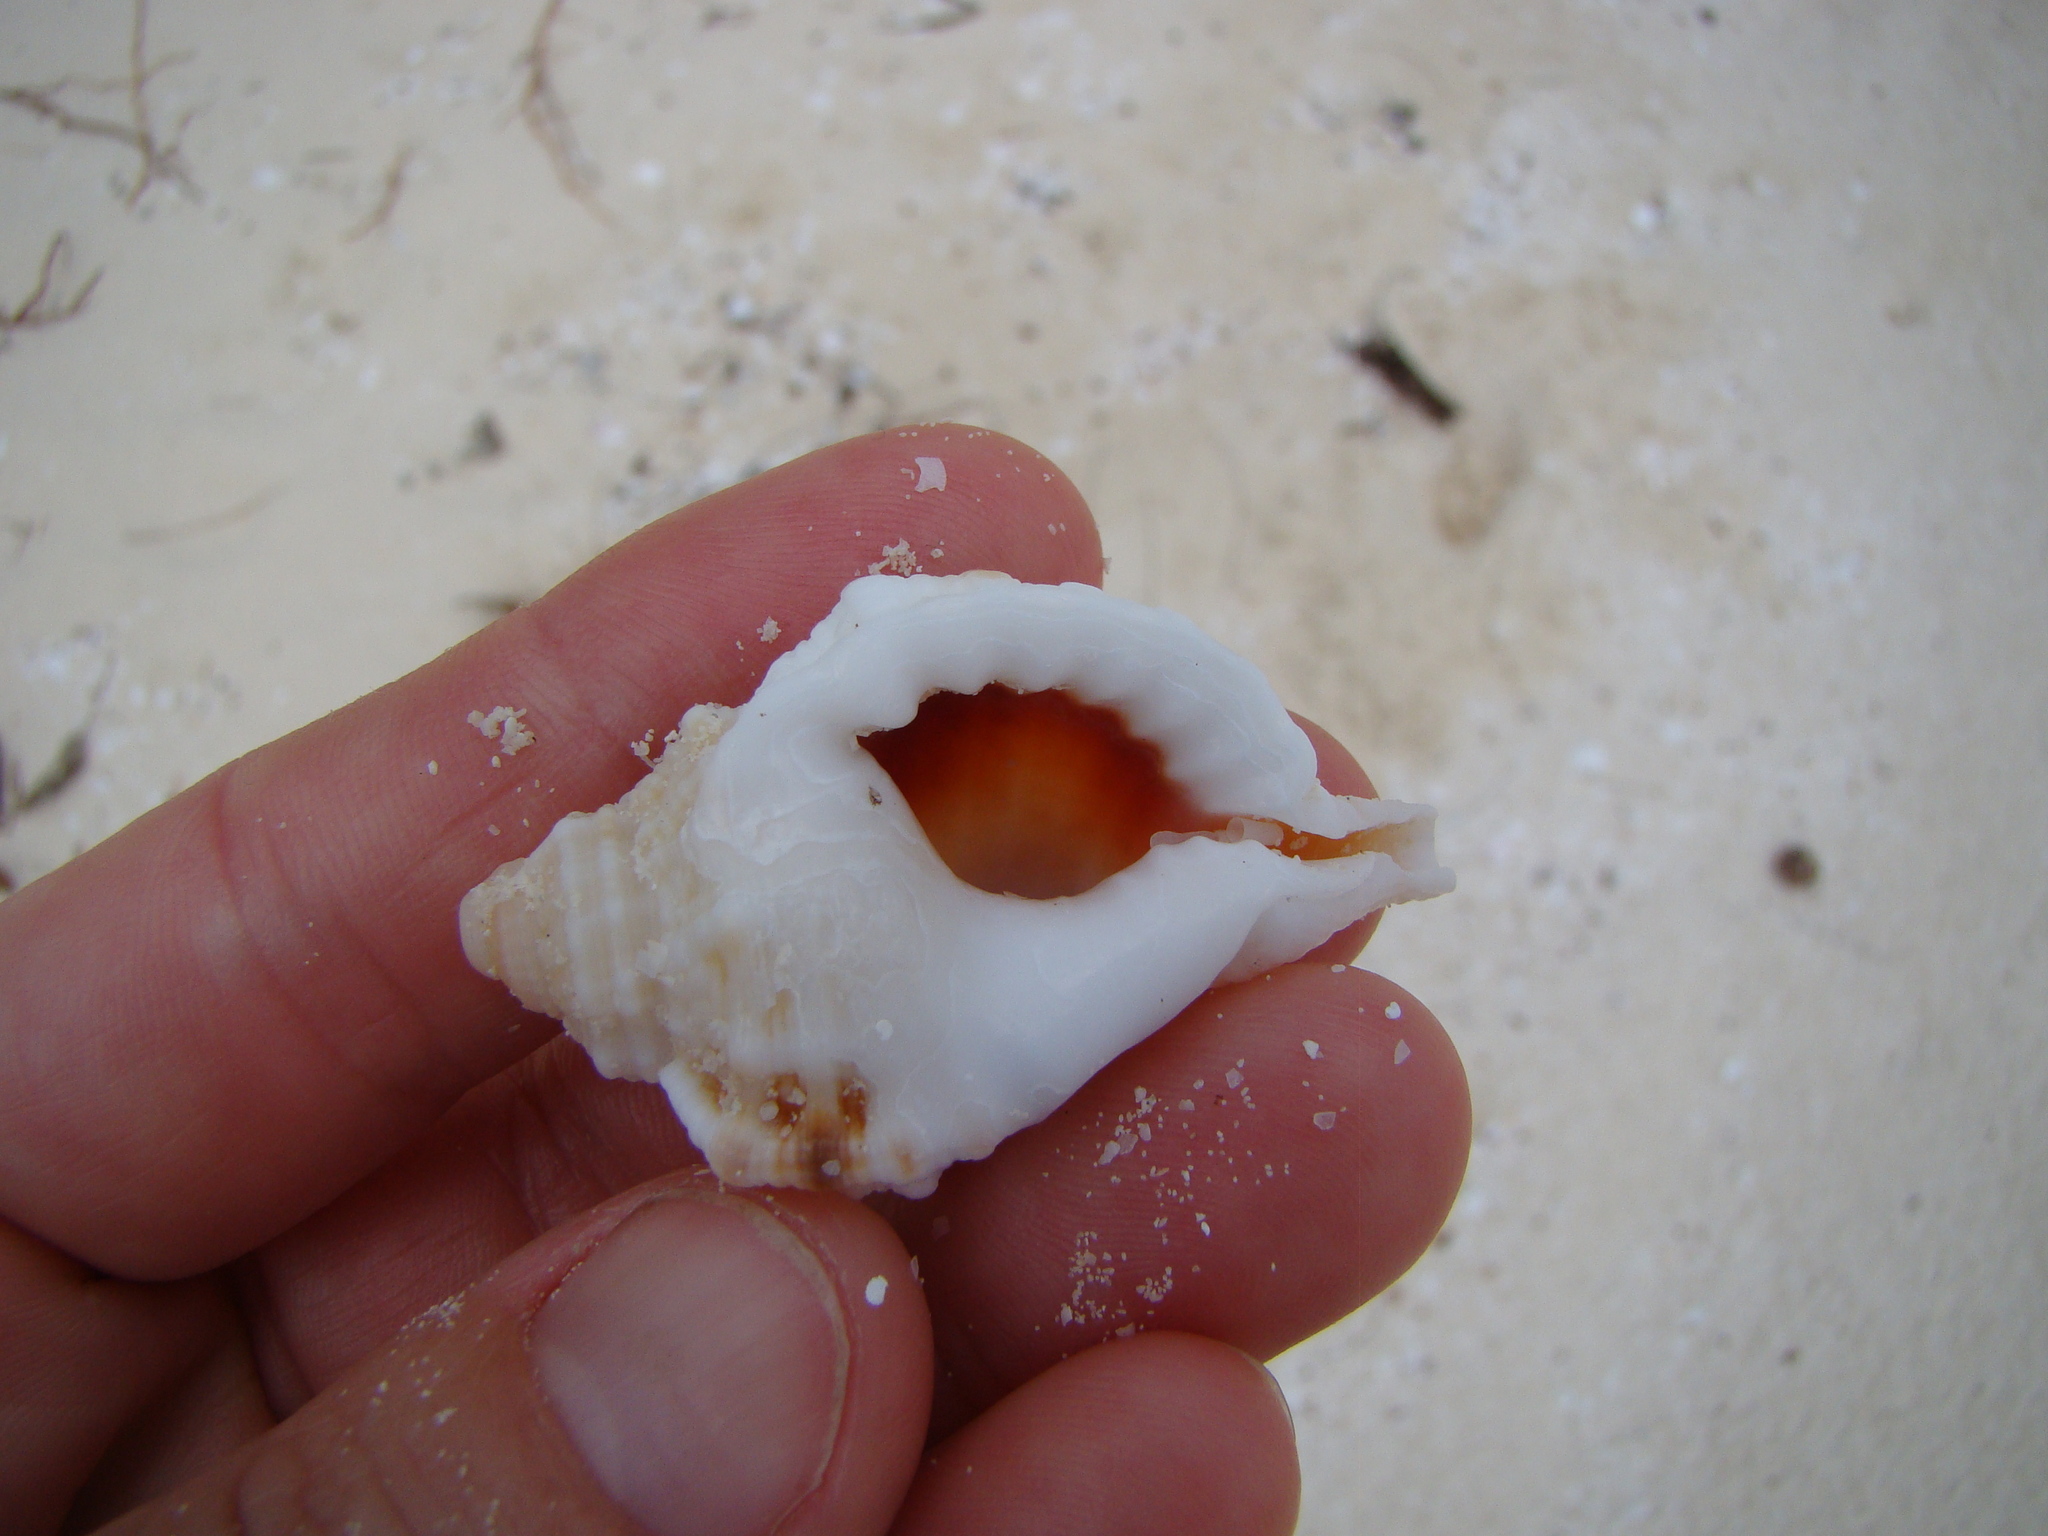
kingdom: Animalia
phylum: Mollusca
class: Gastropoda
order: Littorinimorpha
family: Cymatiidae
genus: Gutturnium
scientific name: Gutturnium muricinum
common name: Knobbed triton
